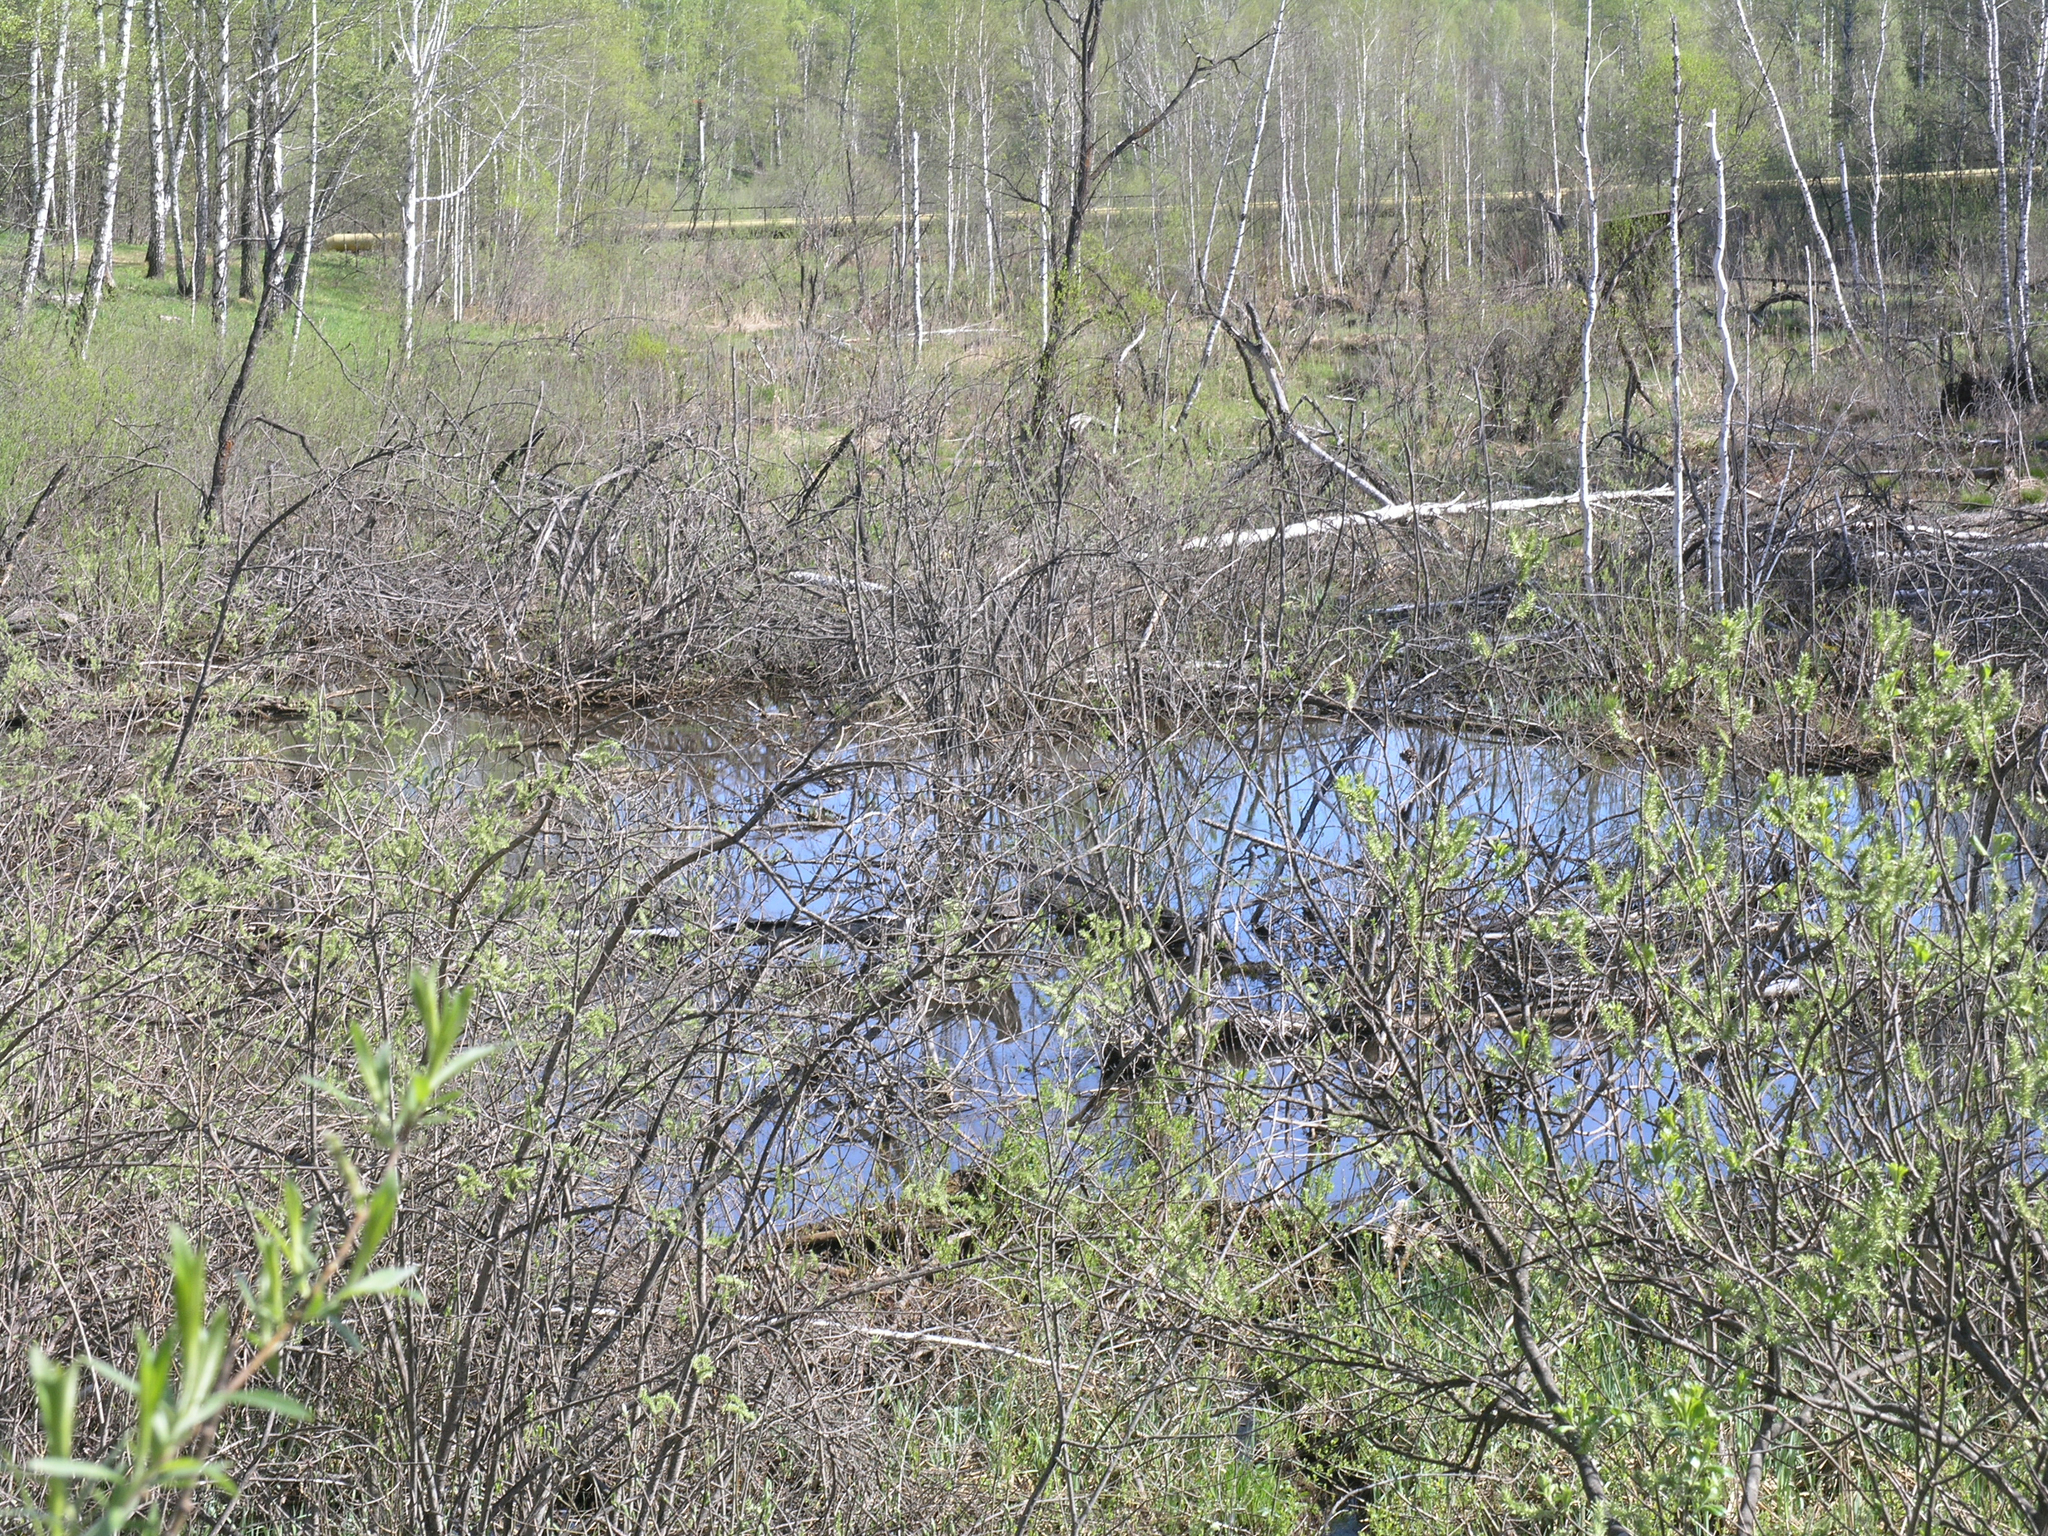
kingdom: Animalia
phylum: Chordata
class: Mammalia
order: Rodentia
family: Castoridae
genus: Castor
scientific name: Castor fiber
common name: Eurasian beaver
